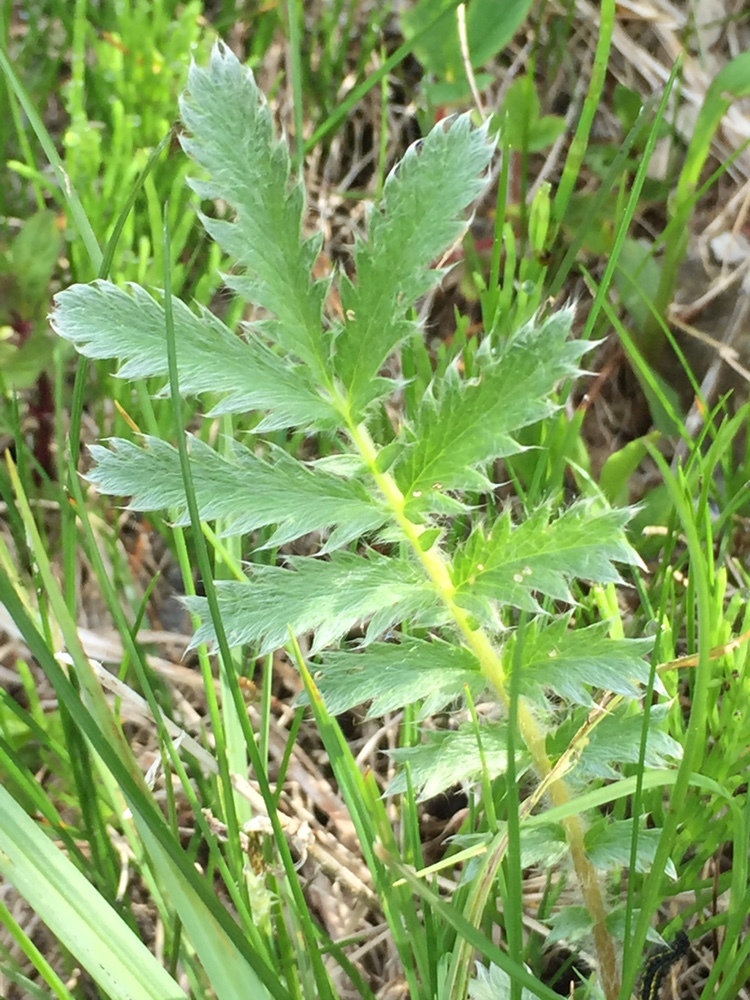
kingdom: Plantae
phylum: Tracheophyta
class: Magnoliopsida
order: Rosales
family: Rosaceae
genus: Argentina
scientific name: Argentina anserina
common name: Common silverweed
